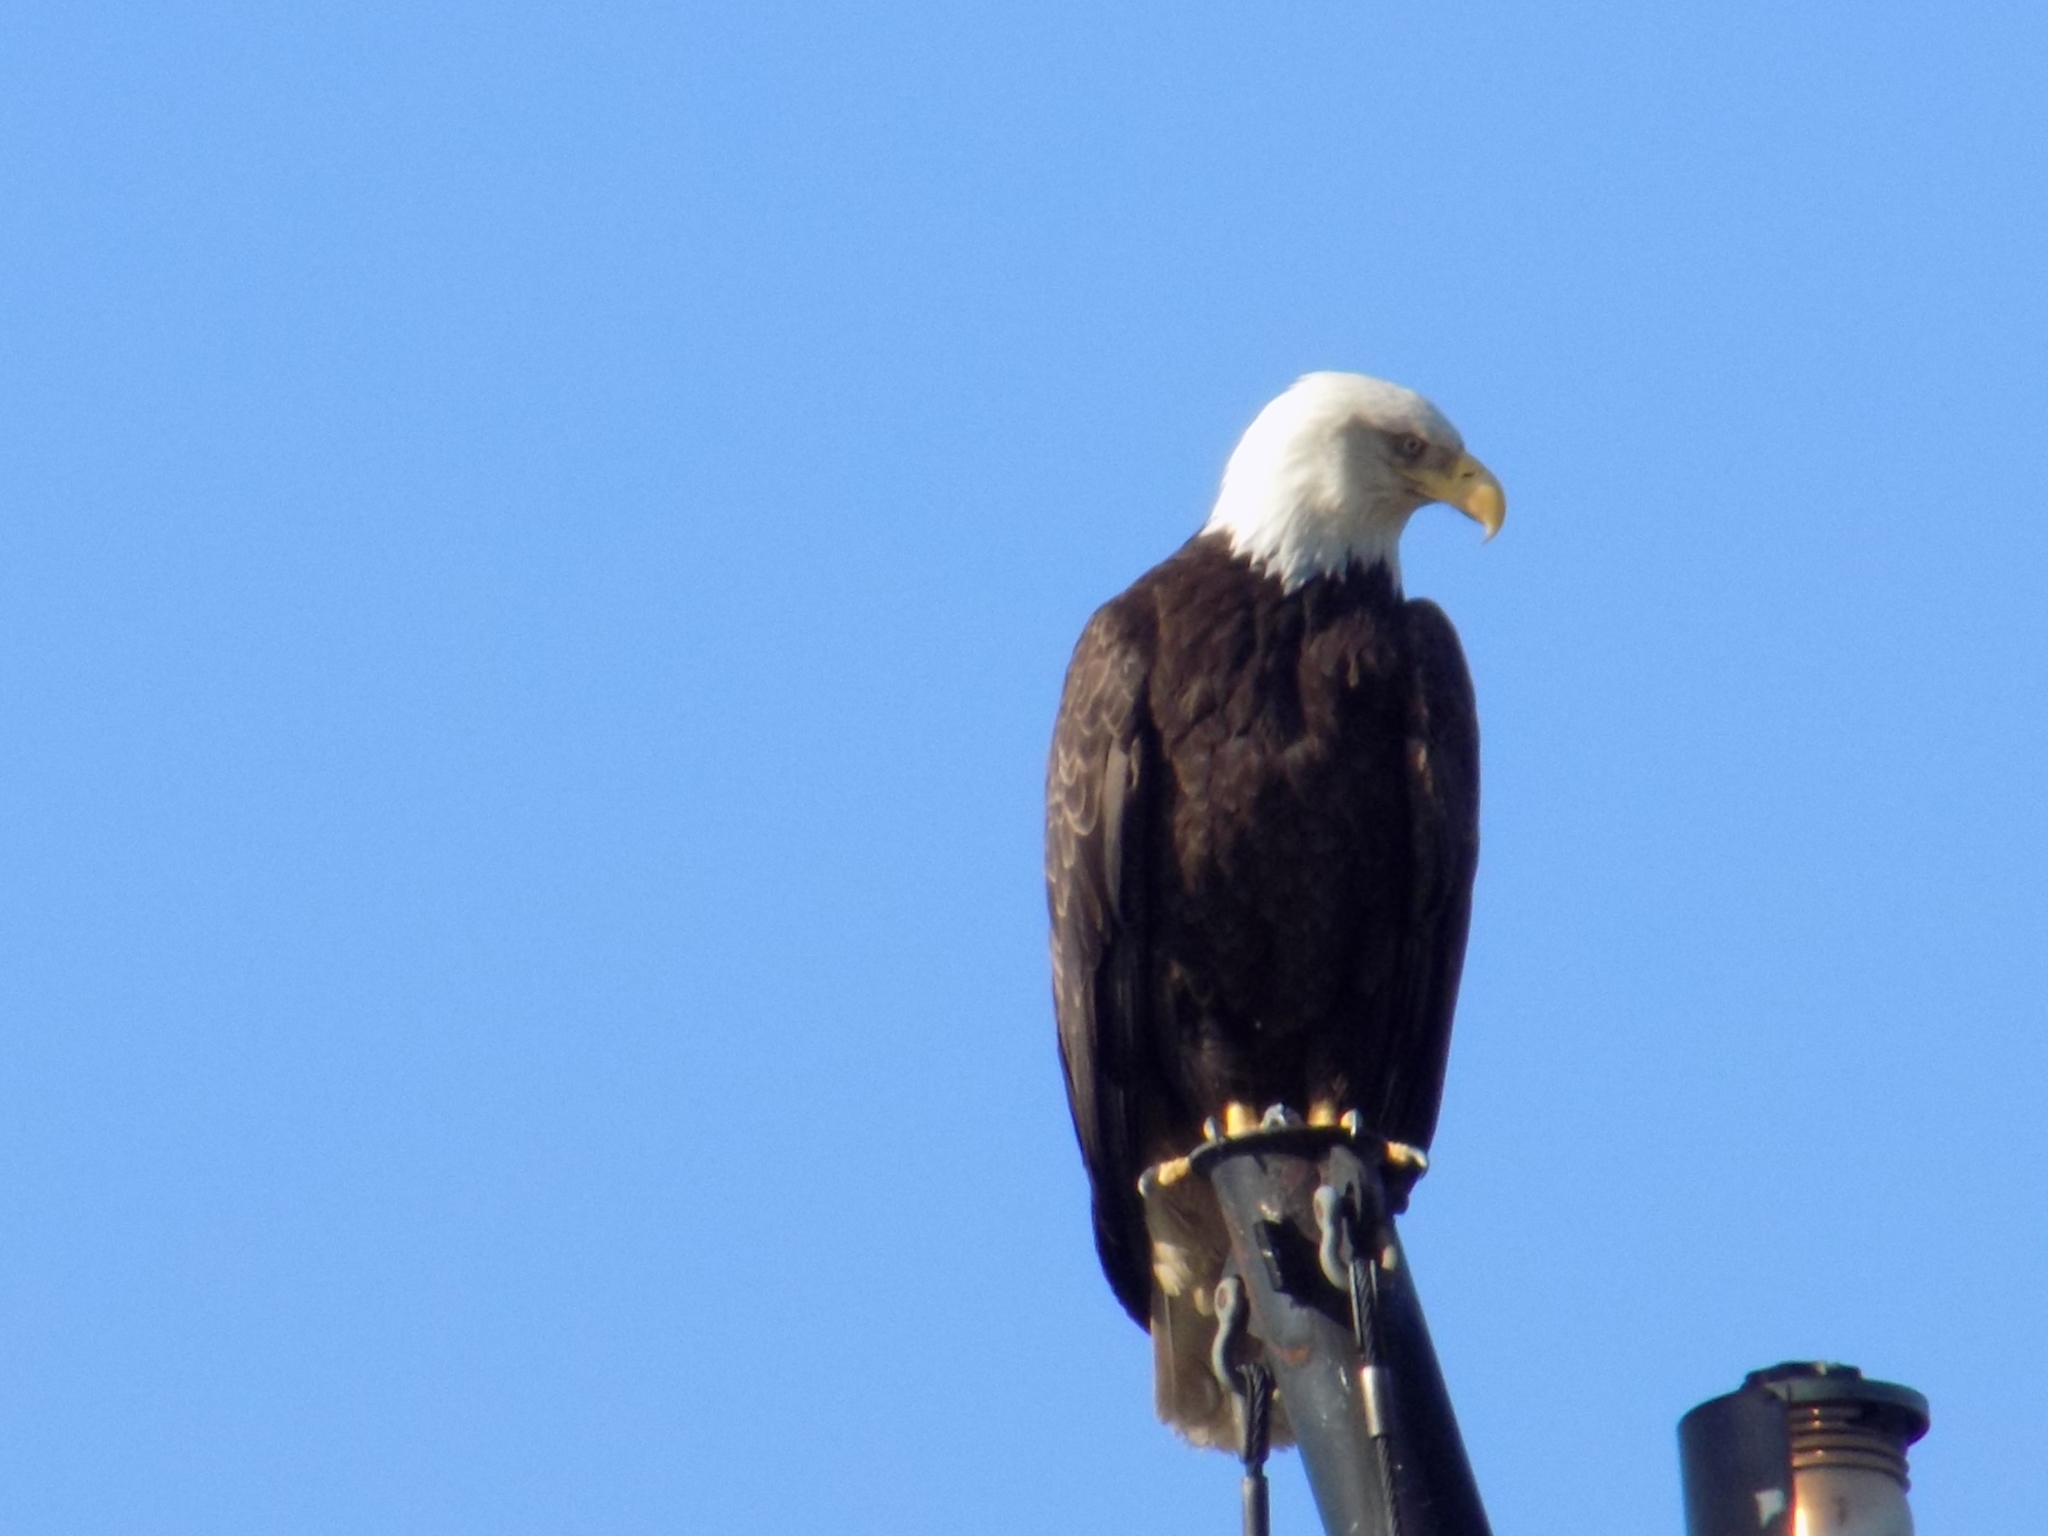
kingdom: Animalia
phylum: Chordata
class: Aves
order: Accipitriformes
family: Accipitridae
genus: Haliaeetus
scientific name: Haliaeetus leucocephalus
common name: Bald eagle
